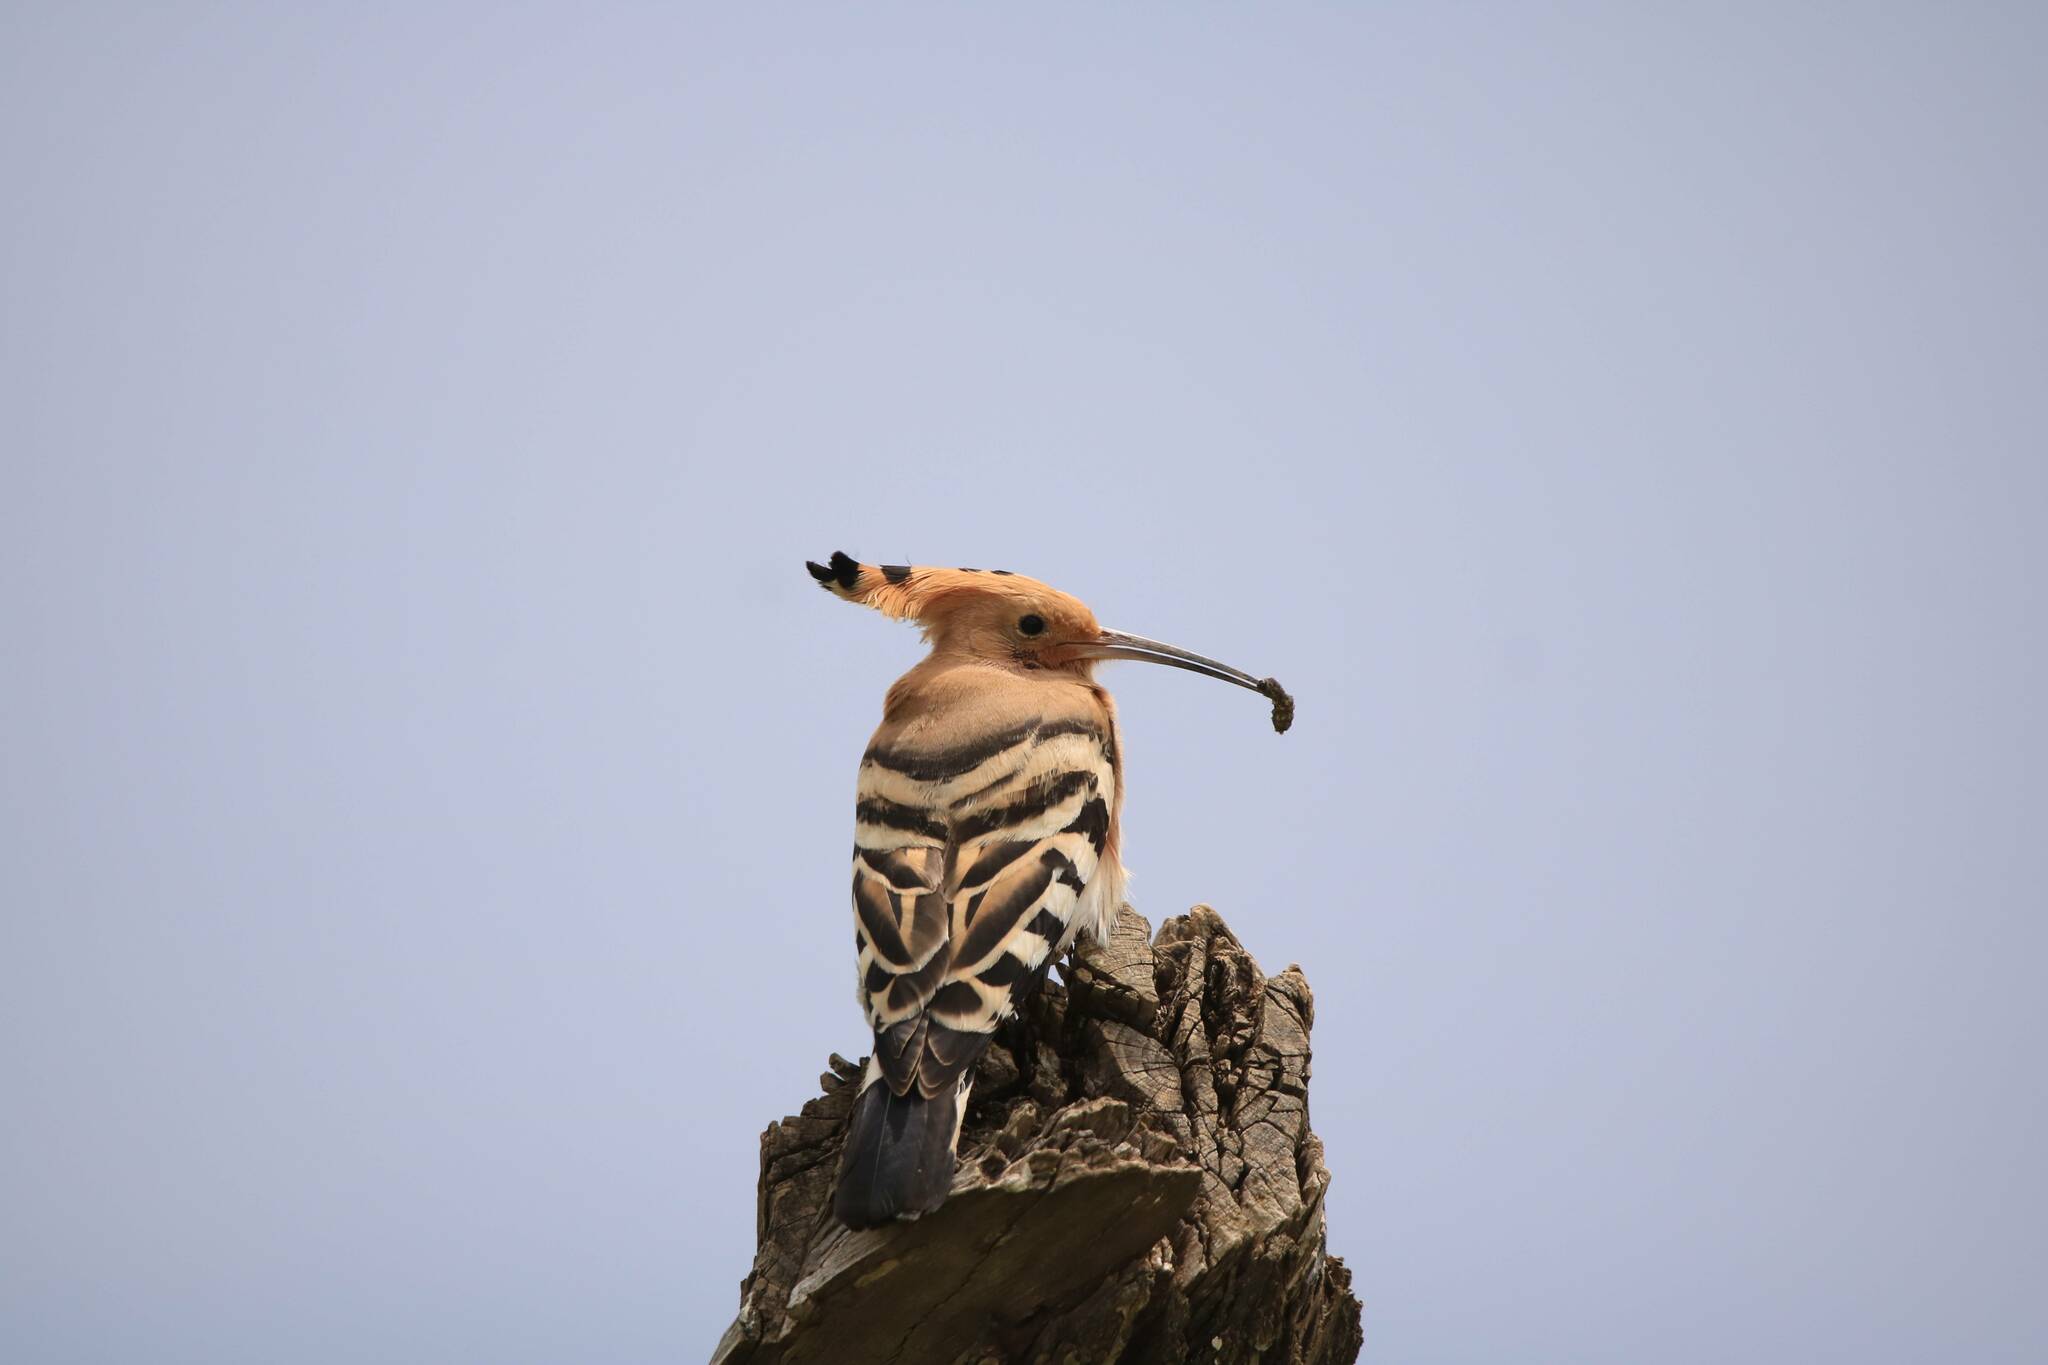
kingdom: Animalia
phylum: Chordata
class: Aves
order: Bucerotiformes
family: Upupidae
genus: Upupa
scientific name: Upupa epops
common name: Eurasian hoopoe
